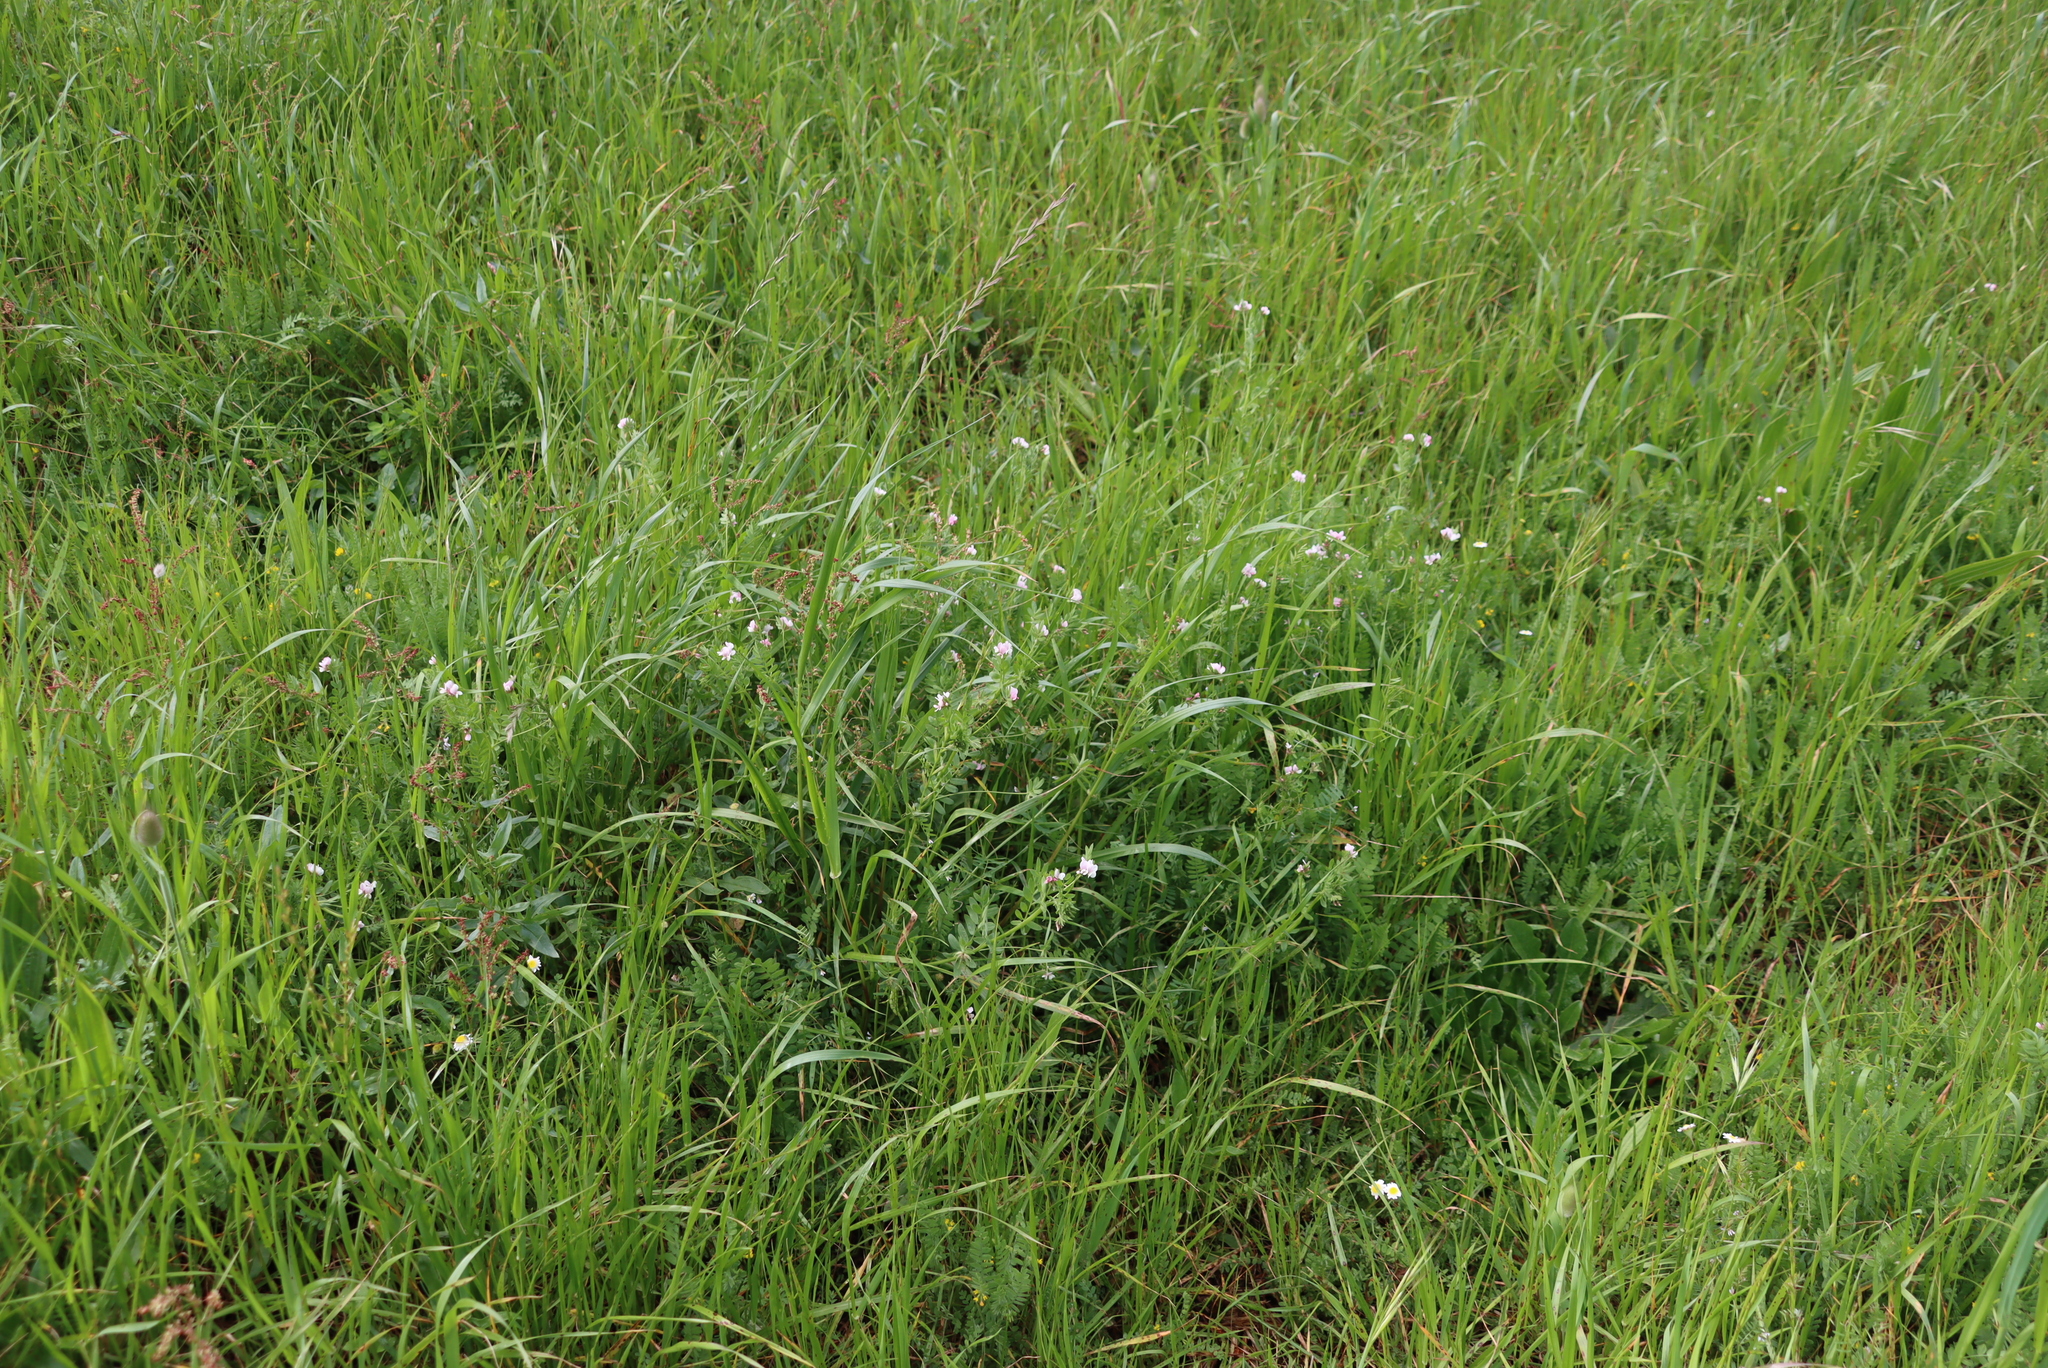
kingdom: Plantae
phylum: Tracheophyta
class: Magnoliopsida
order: Fabales
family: Fabaceae
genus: Ornithopus
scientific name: Ornithopus sativus
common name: Serradella
